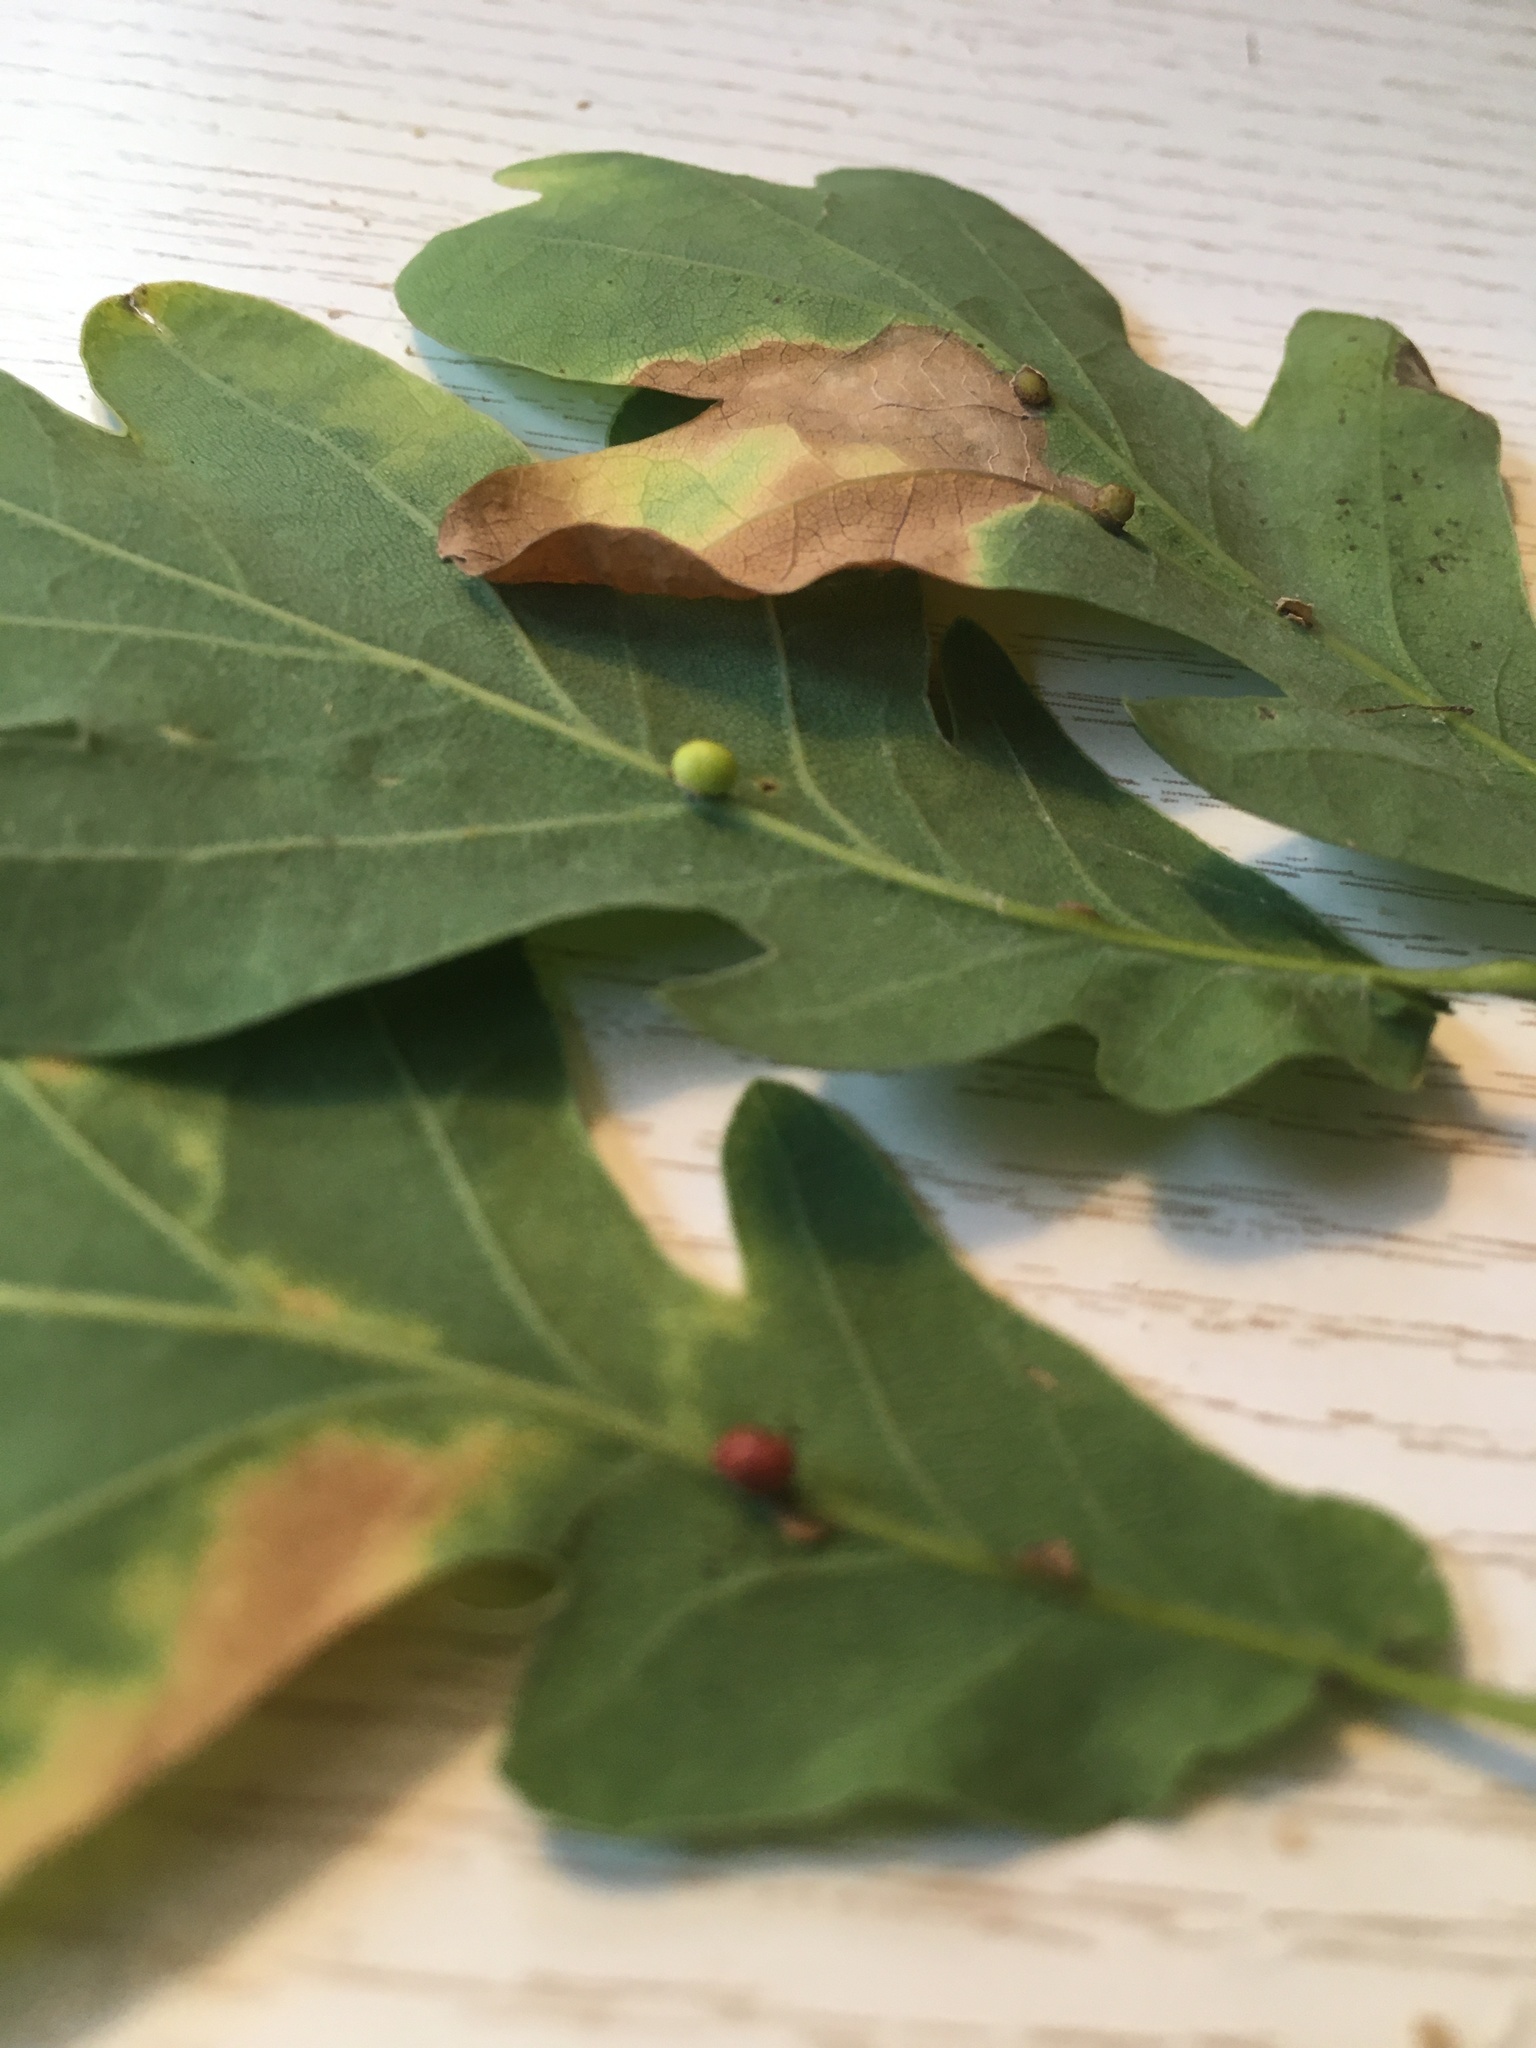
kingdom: Animalia
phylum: Arthropoda
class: Insecta
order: Hymenoptera
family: Cynipidae
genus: Neuroterus
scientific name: Neuroterus anthracinus
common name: Oyster gall
